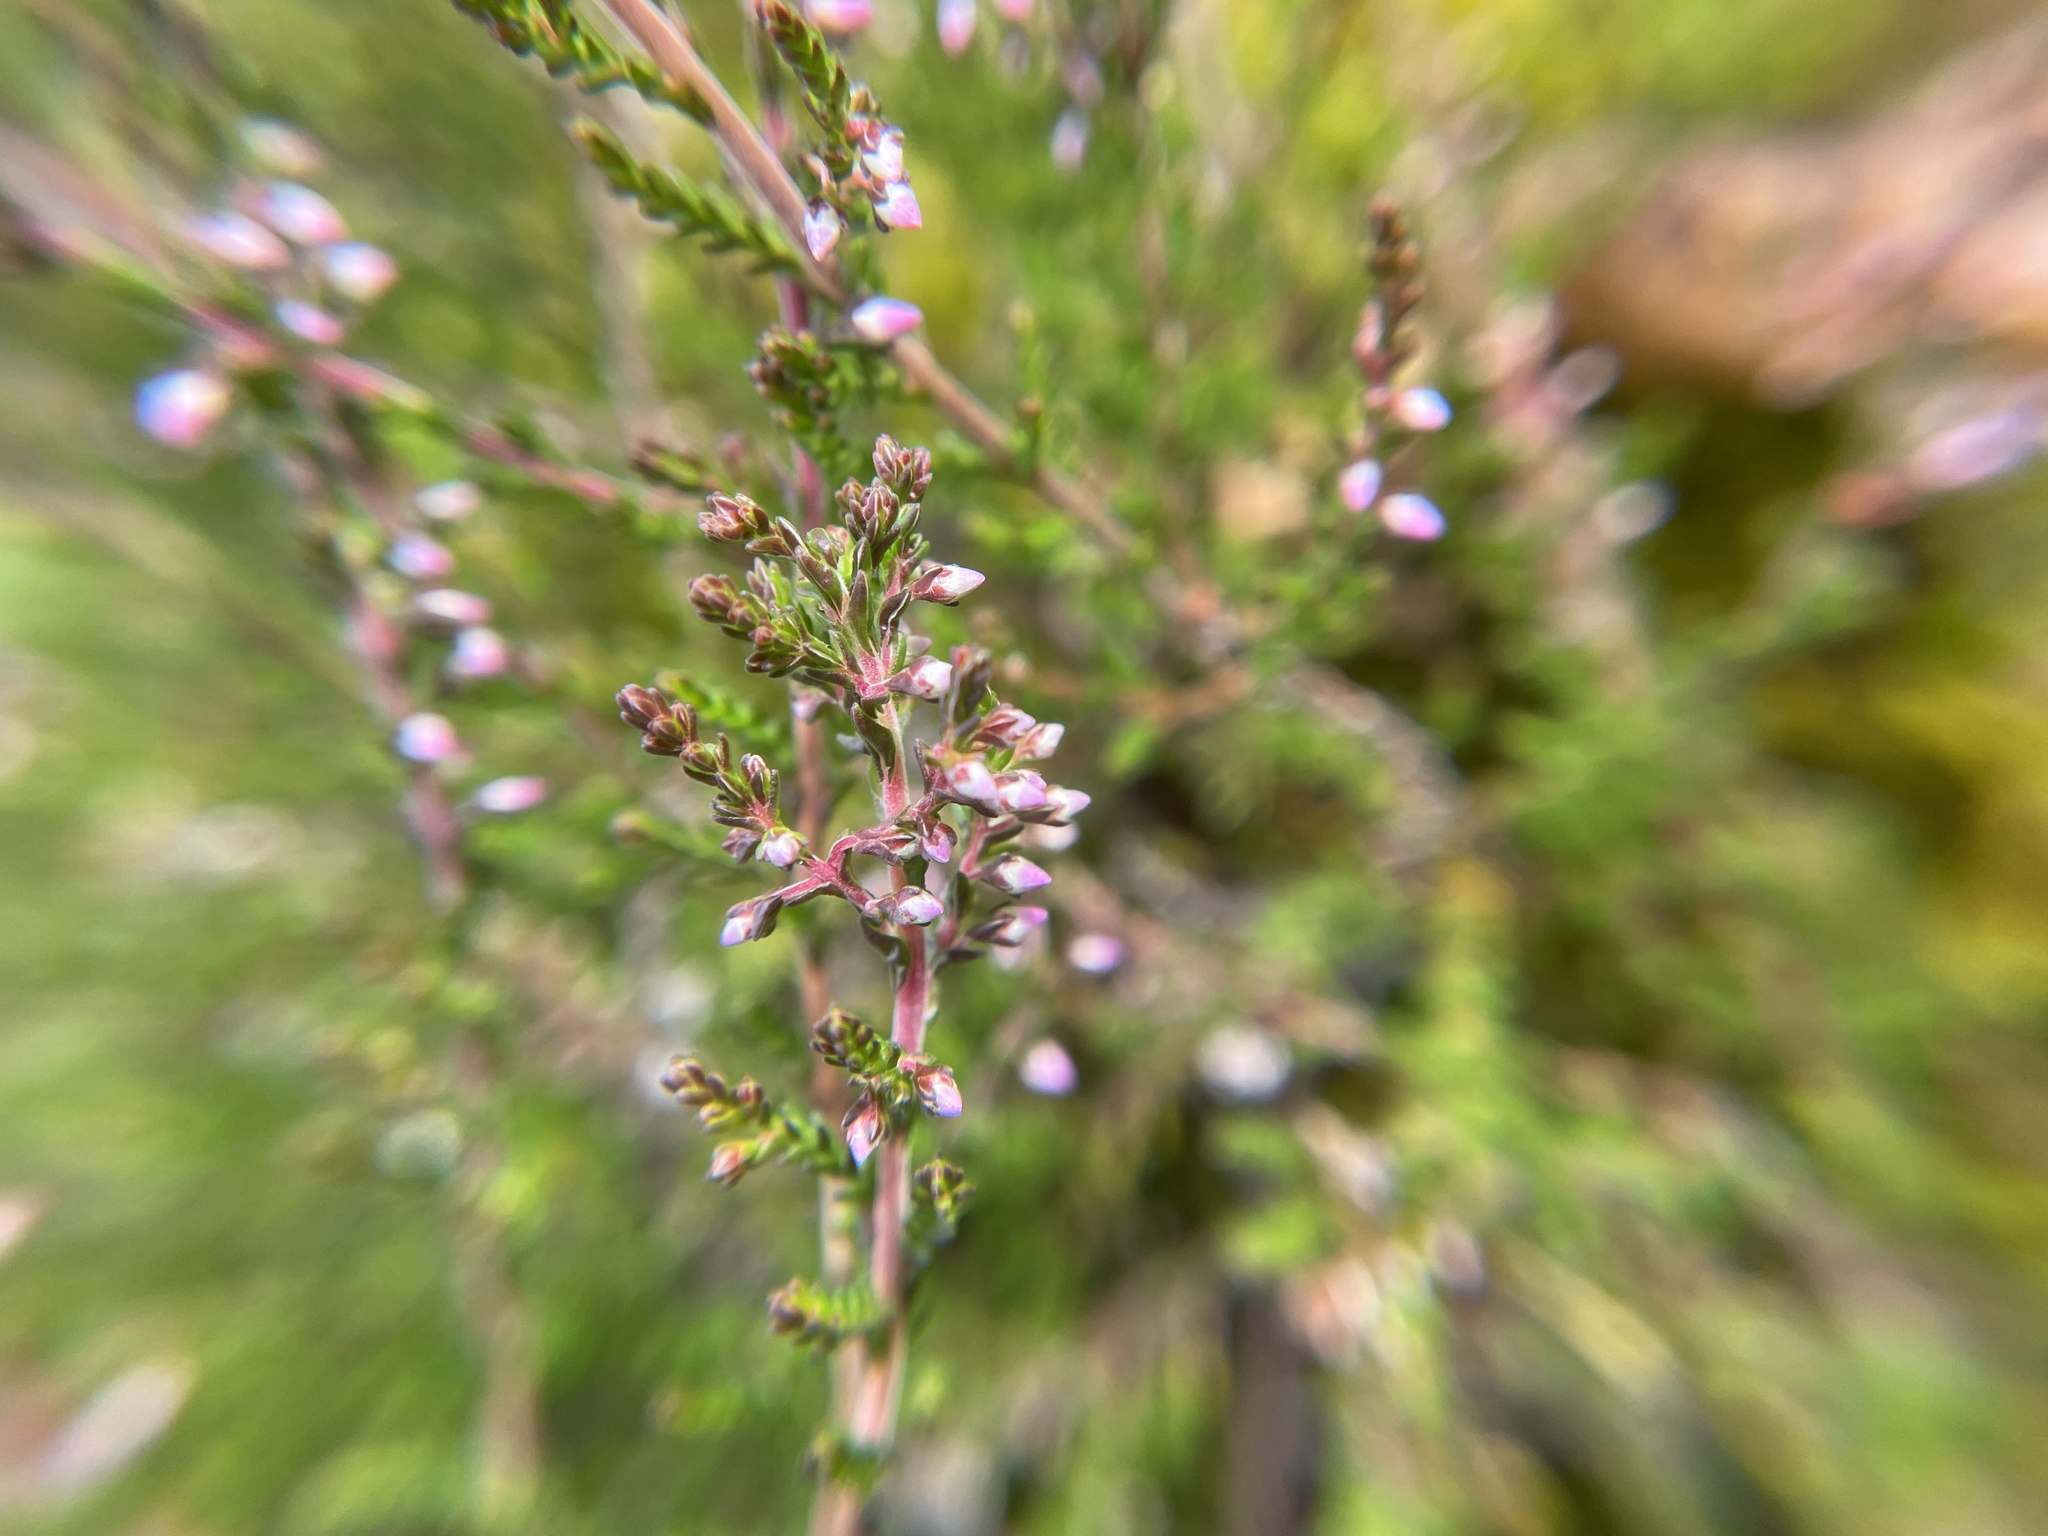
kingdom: Plantae
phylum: Tracheophyta
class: Magnoliopsida
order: Ericales
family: Ericaceae
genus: Calluna
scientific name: Calluna vulgaris
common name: Heather
